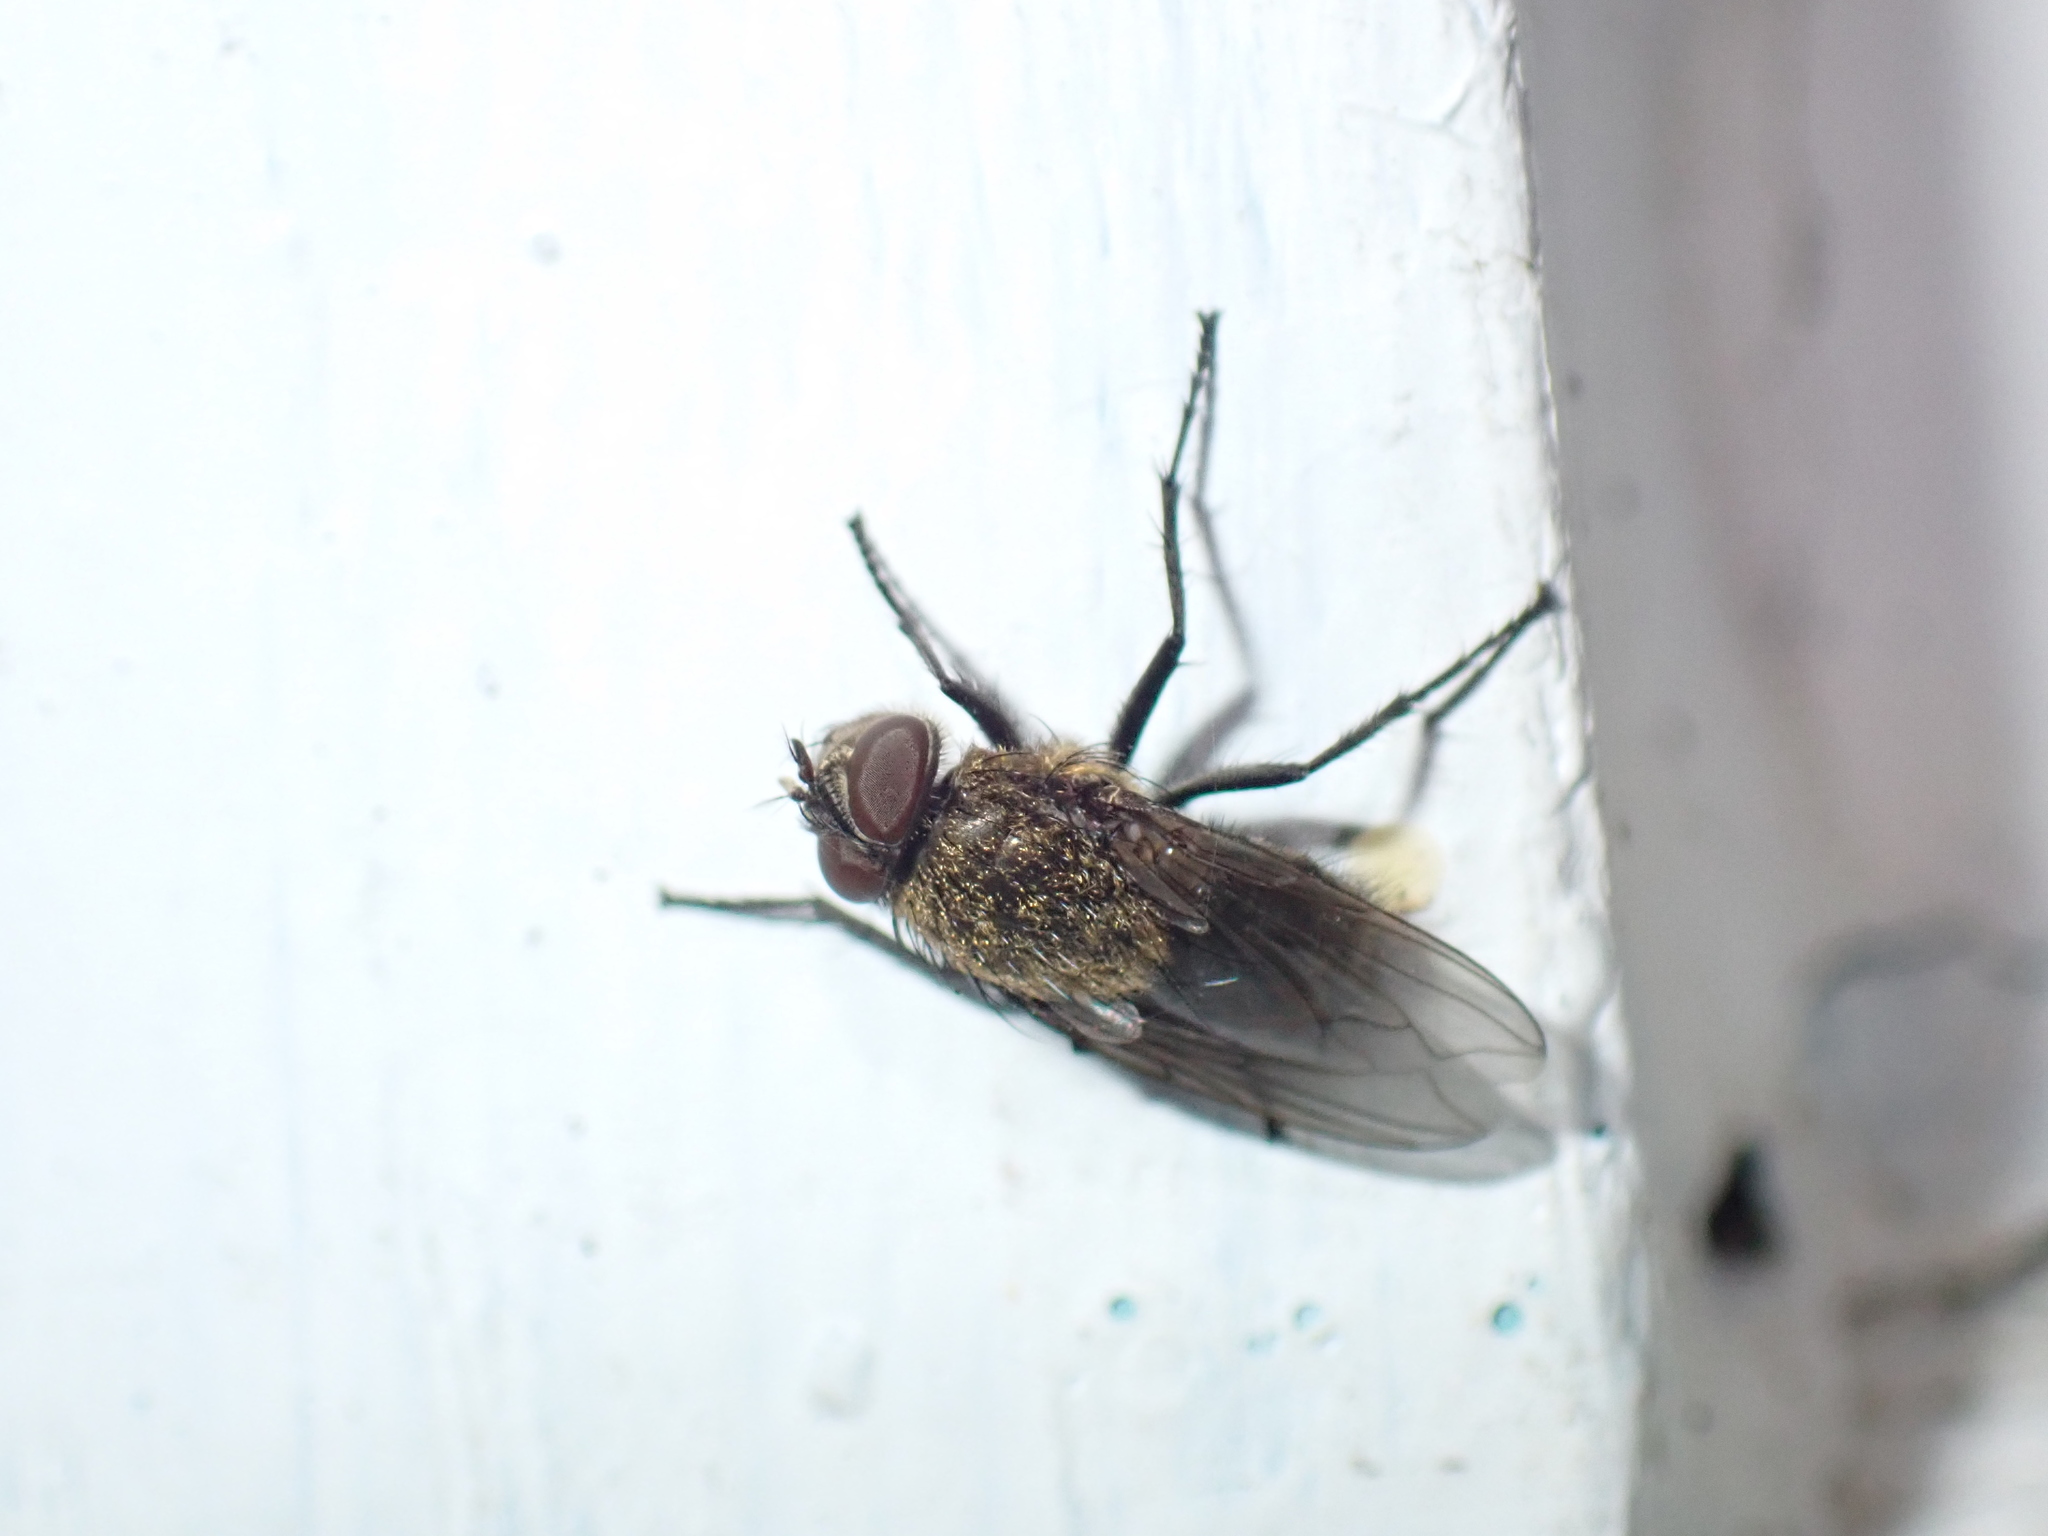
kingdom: Animalia
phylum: Arthropoda
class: Insecta
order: Diptera
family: Polleniidae
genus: Pollenia
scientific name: Pollenia
